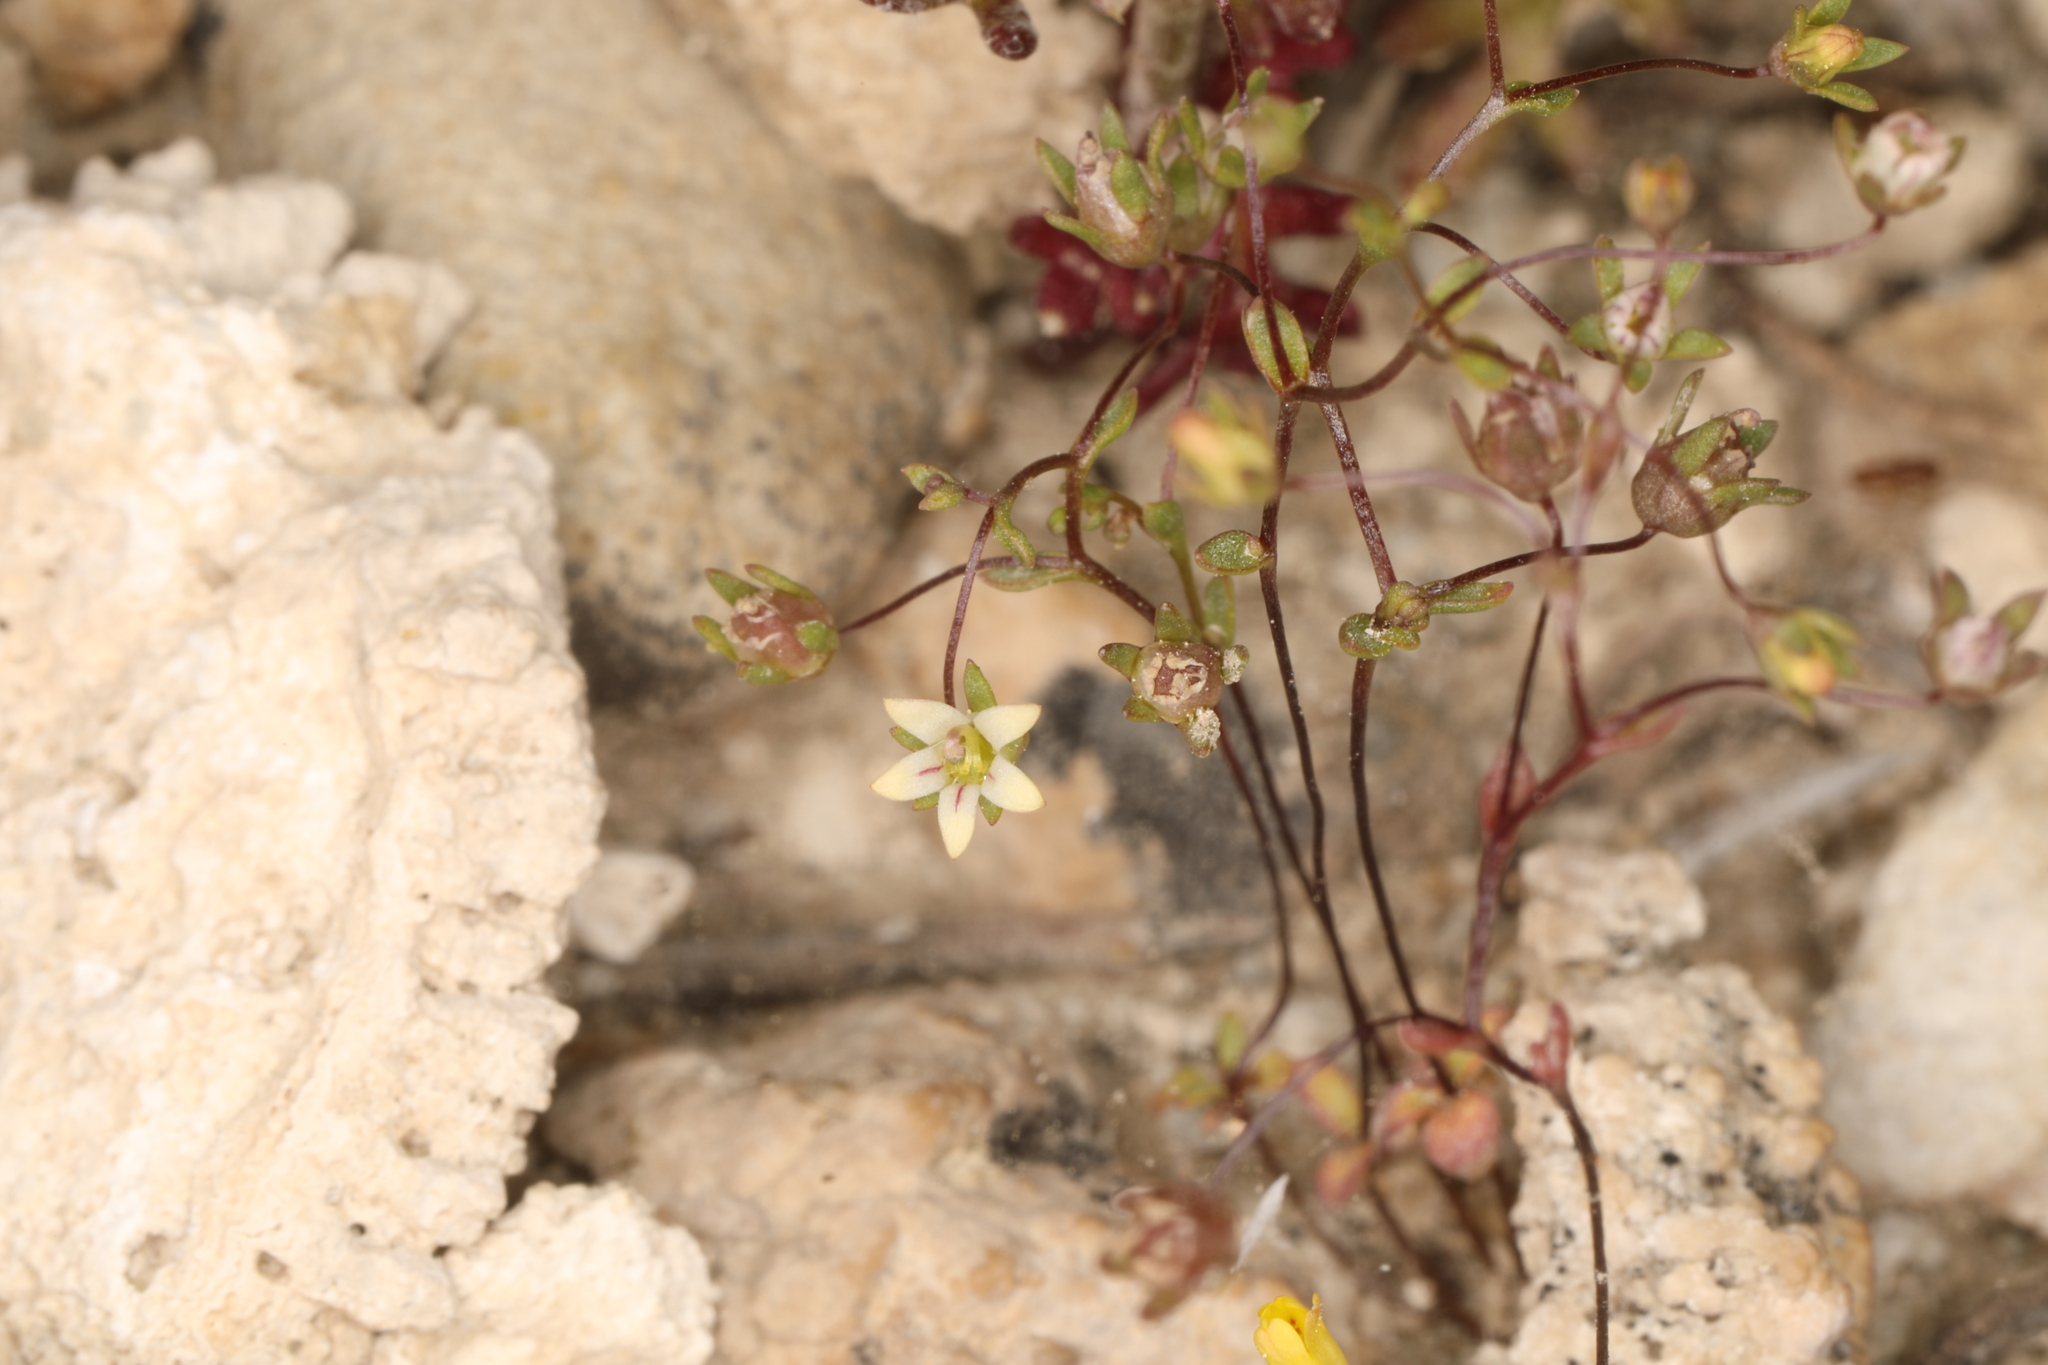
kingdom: Plantae
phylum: Tracheophyta
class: Magnoliopsida
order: Asterales
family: Campanulaceae
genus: Nemacladus
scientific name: Nemacladus inyoensis
